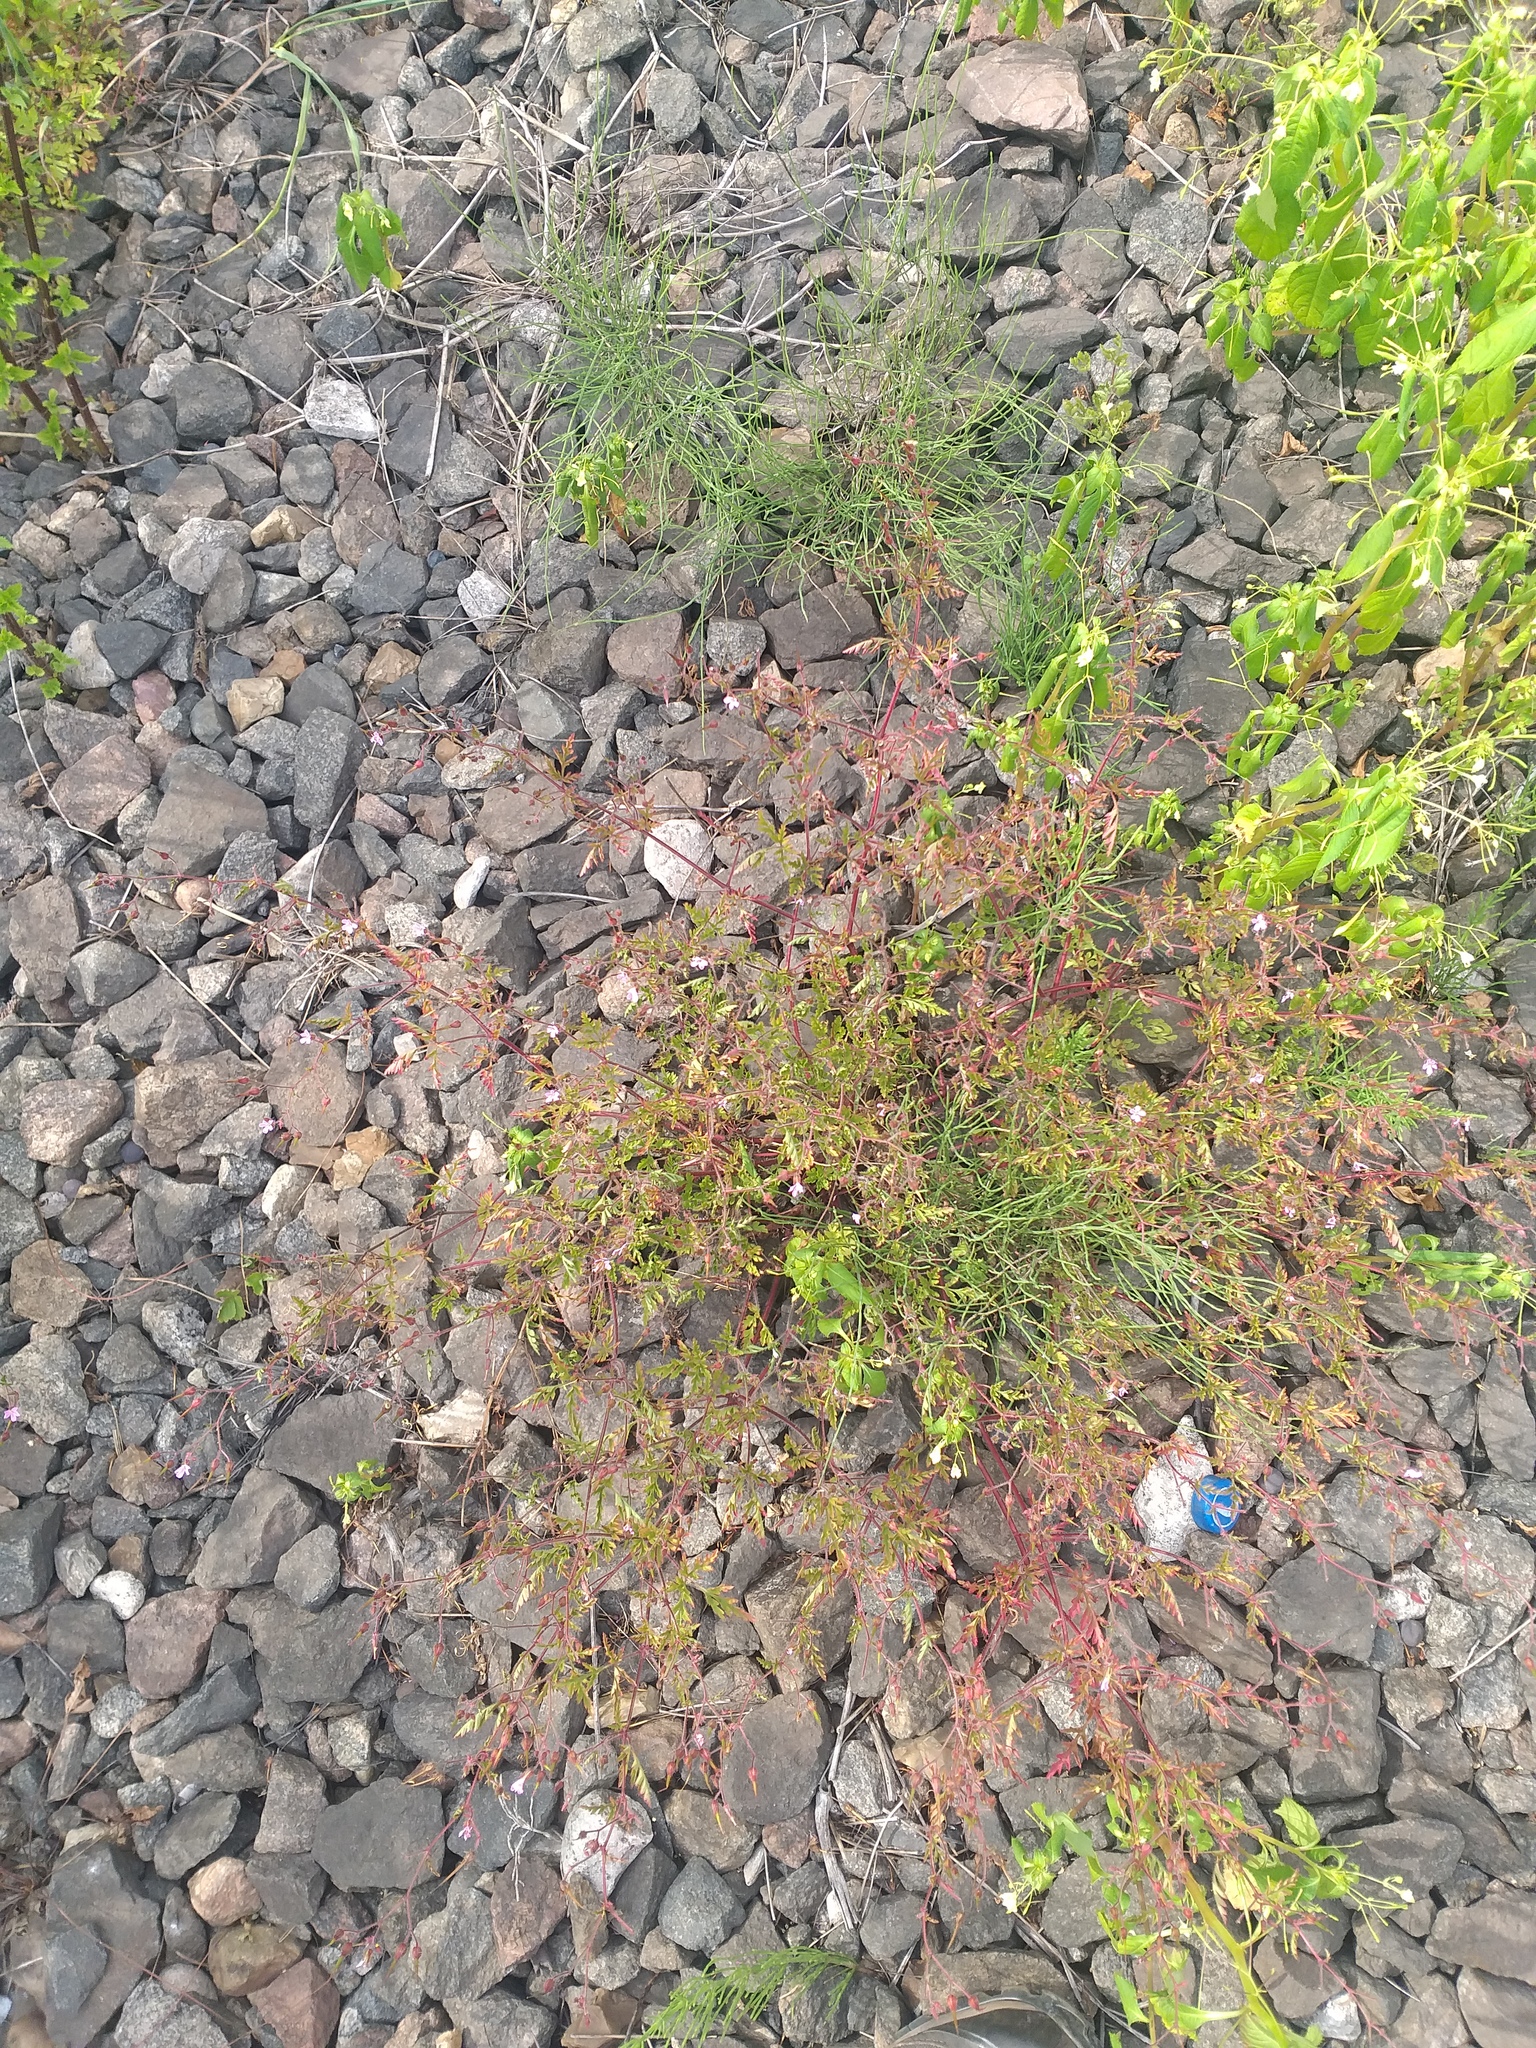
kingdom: Plantae
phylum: Tracheophyta
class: Magnoliopsida
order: Geraniales
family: Geraniaceae
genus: Geranium
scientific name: Geranium robertianum
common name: Herb-robert
